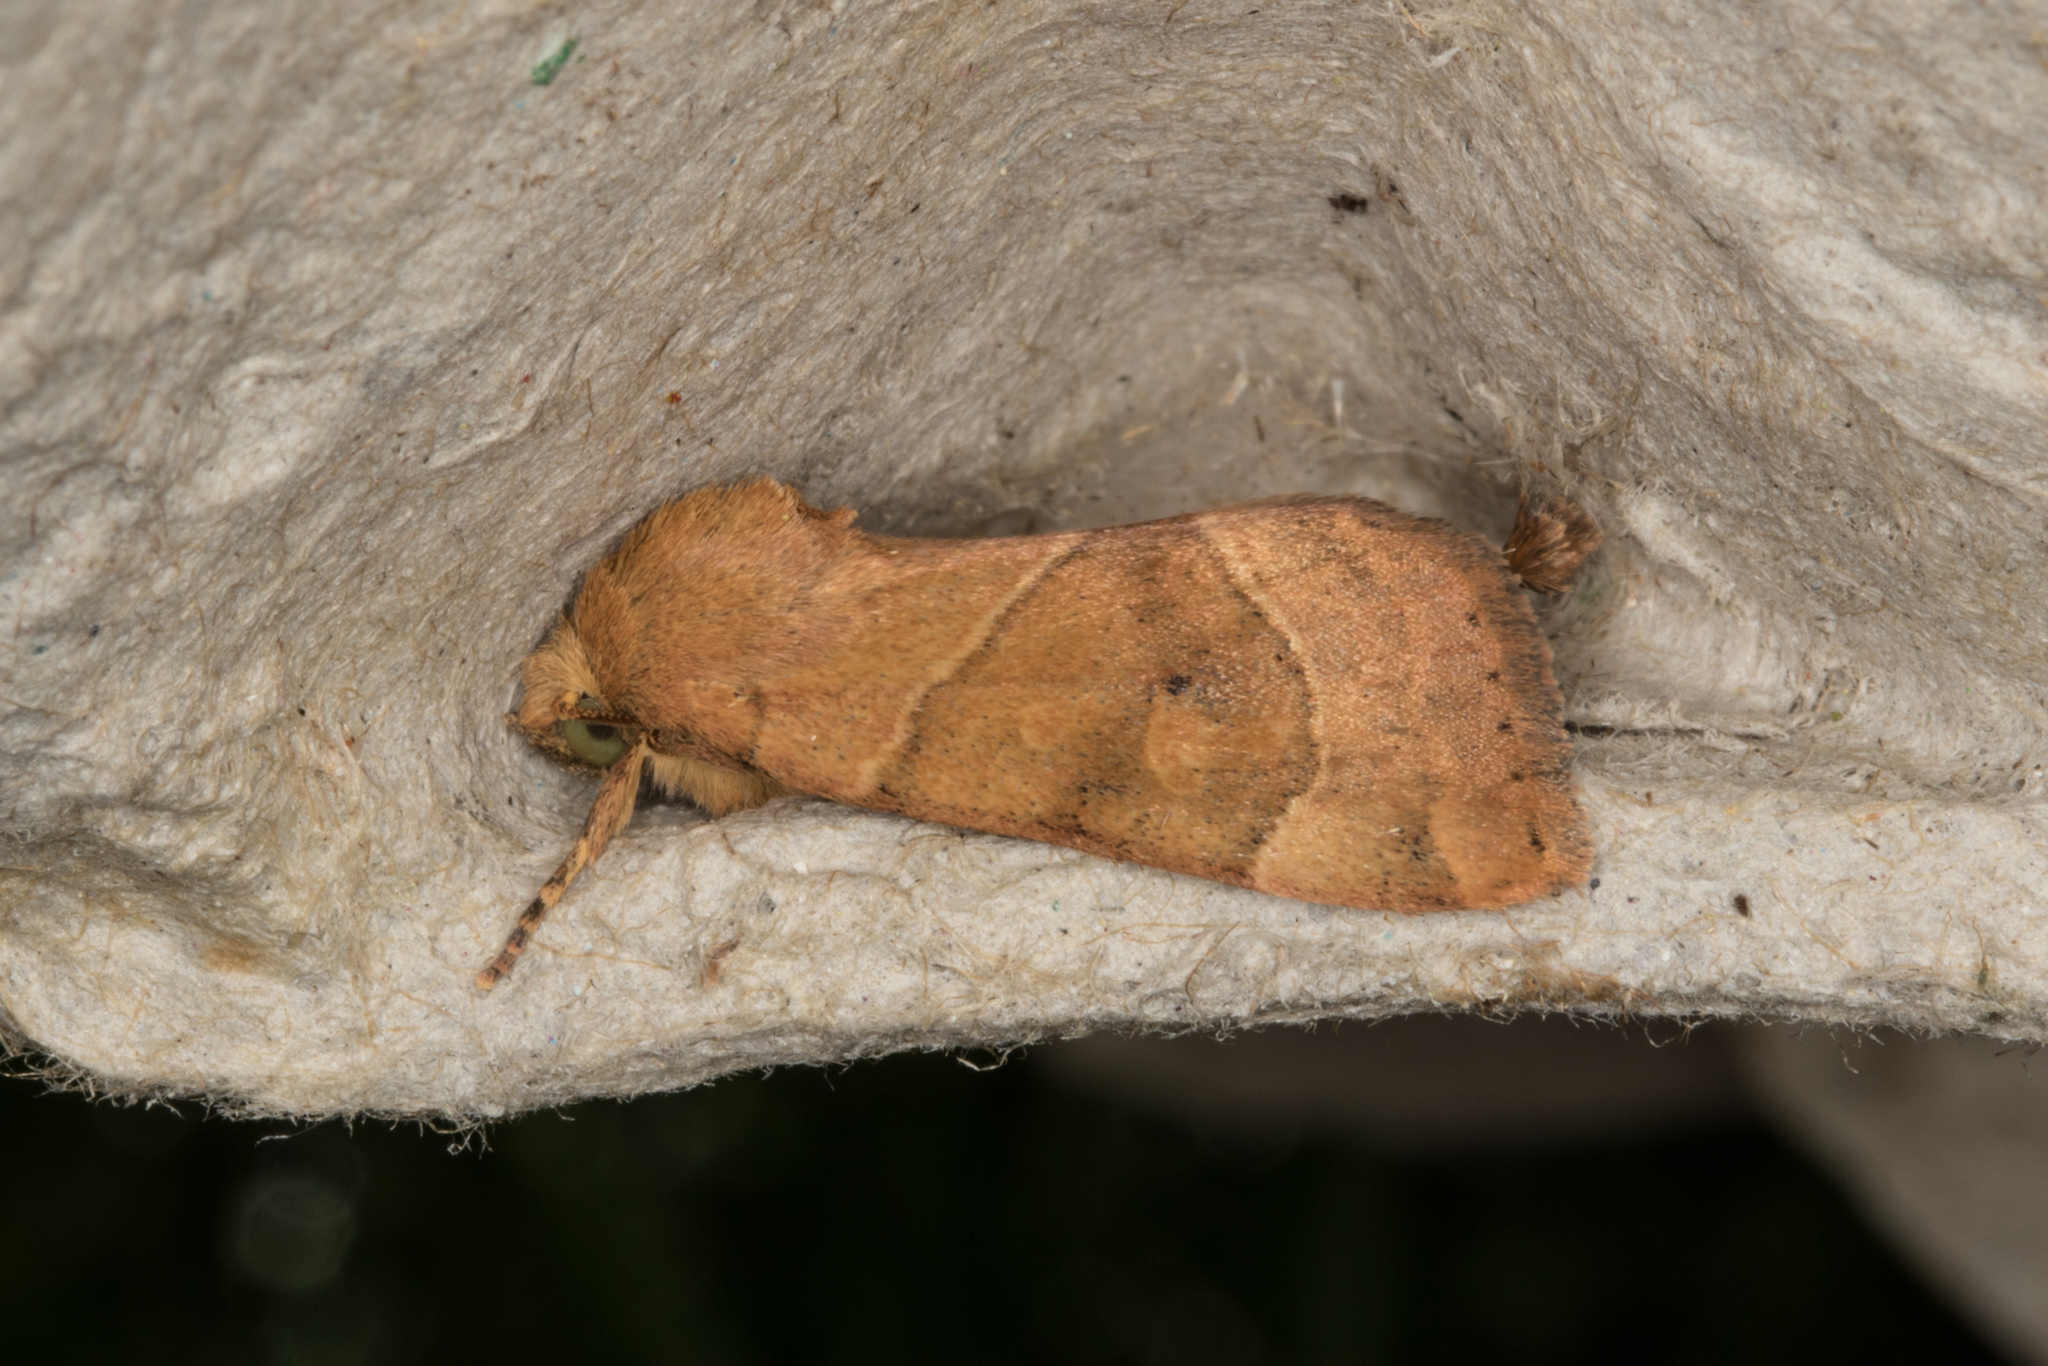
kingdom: Animalia
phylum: Arthropoda
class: Insecta
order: Lepidoptera
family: Noctuidae
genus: Cosmia
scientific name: Cosmia trapezina
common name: Dun-bar
